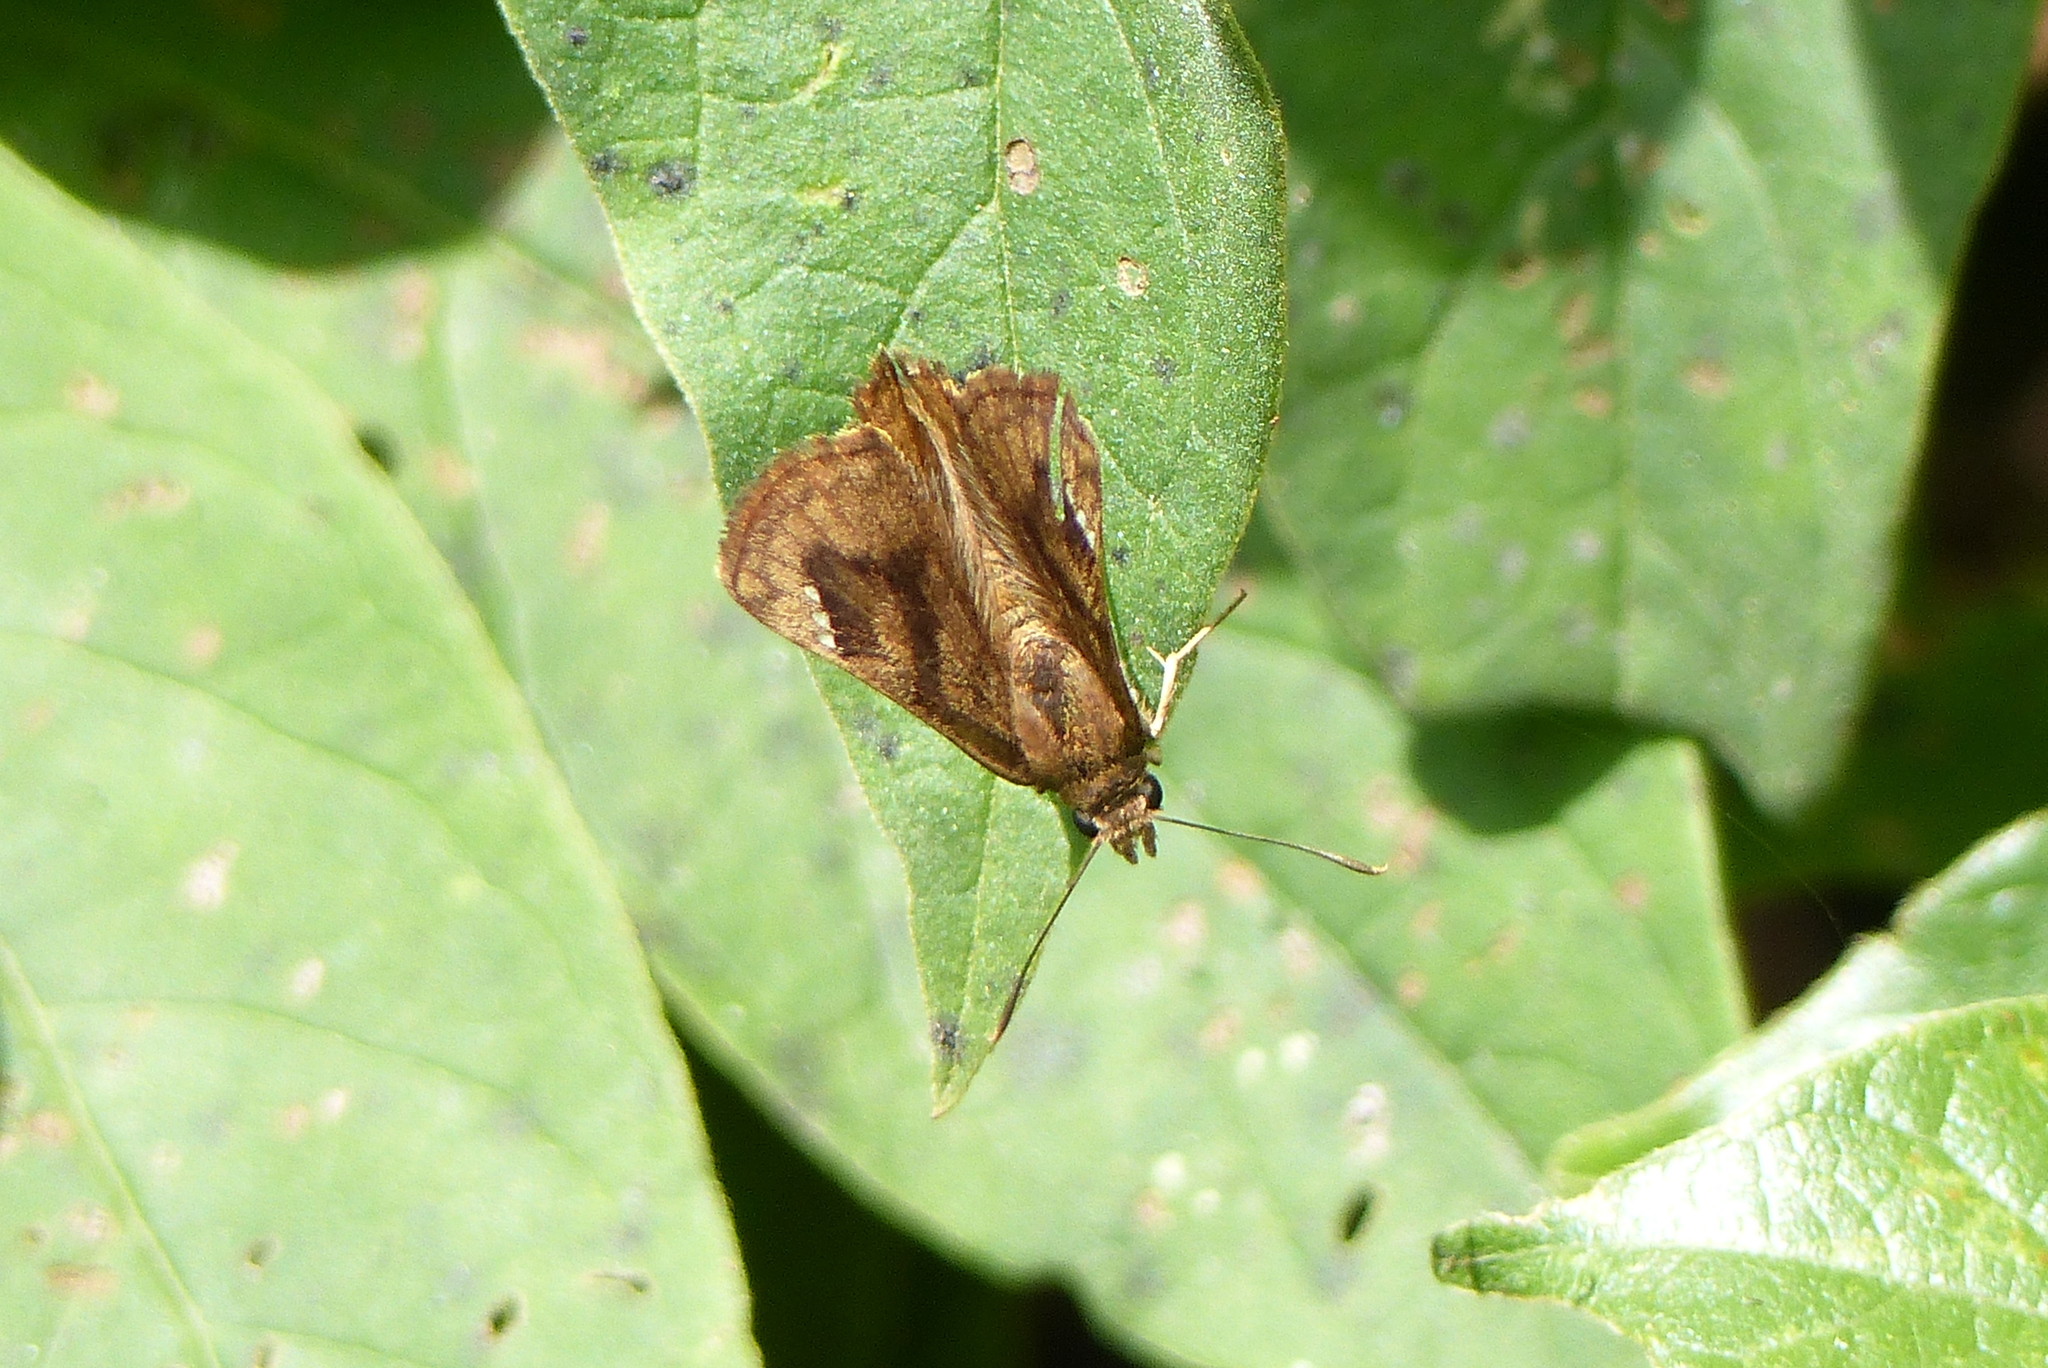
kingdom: Animalia
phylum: Arthropoda
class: Insecta
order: Lepidoptera
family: Hesperiidae
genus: Nisoniades
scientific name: Nisoniades macarius
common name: Macarius tufted-skipper
